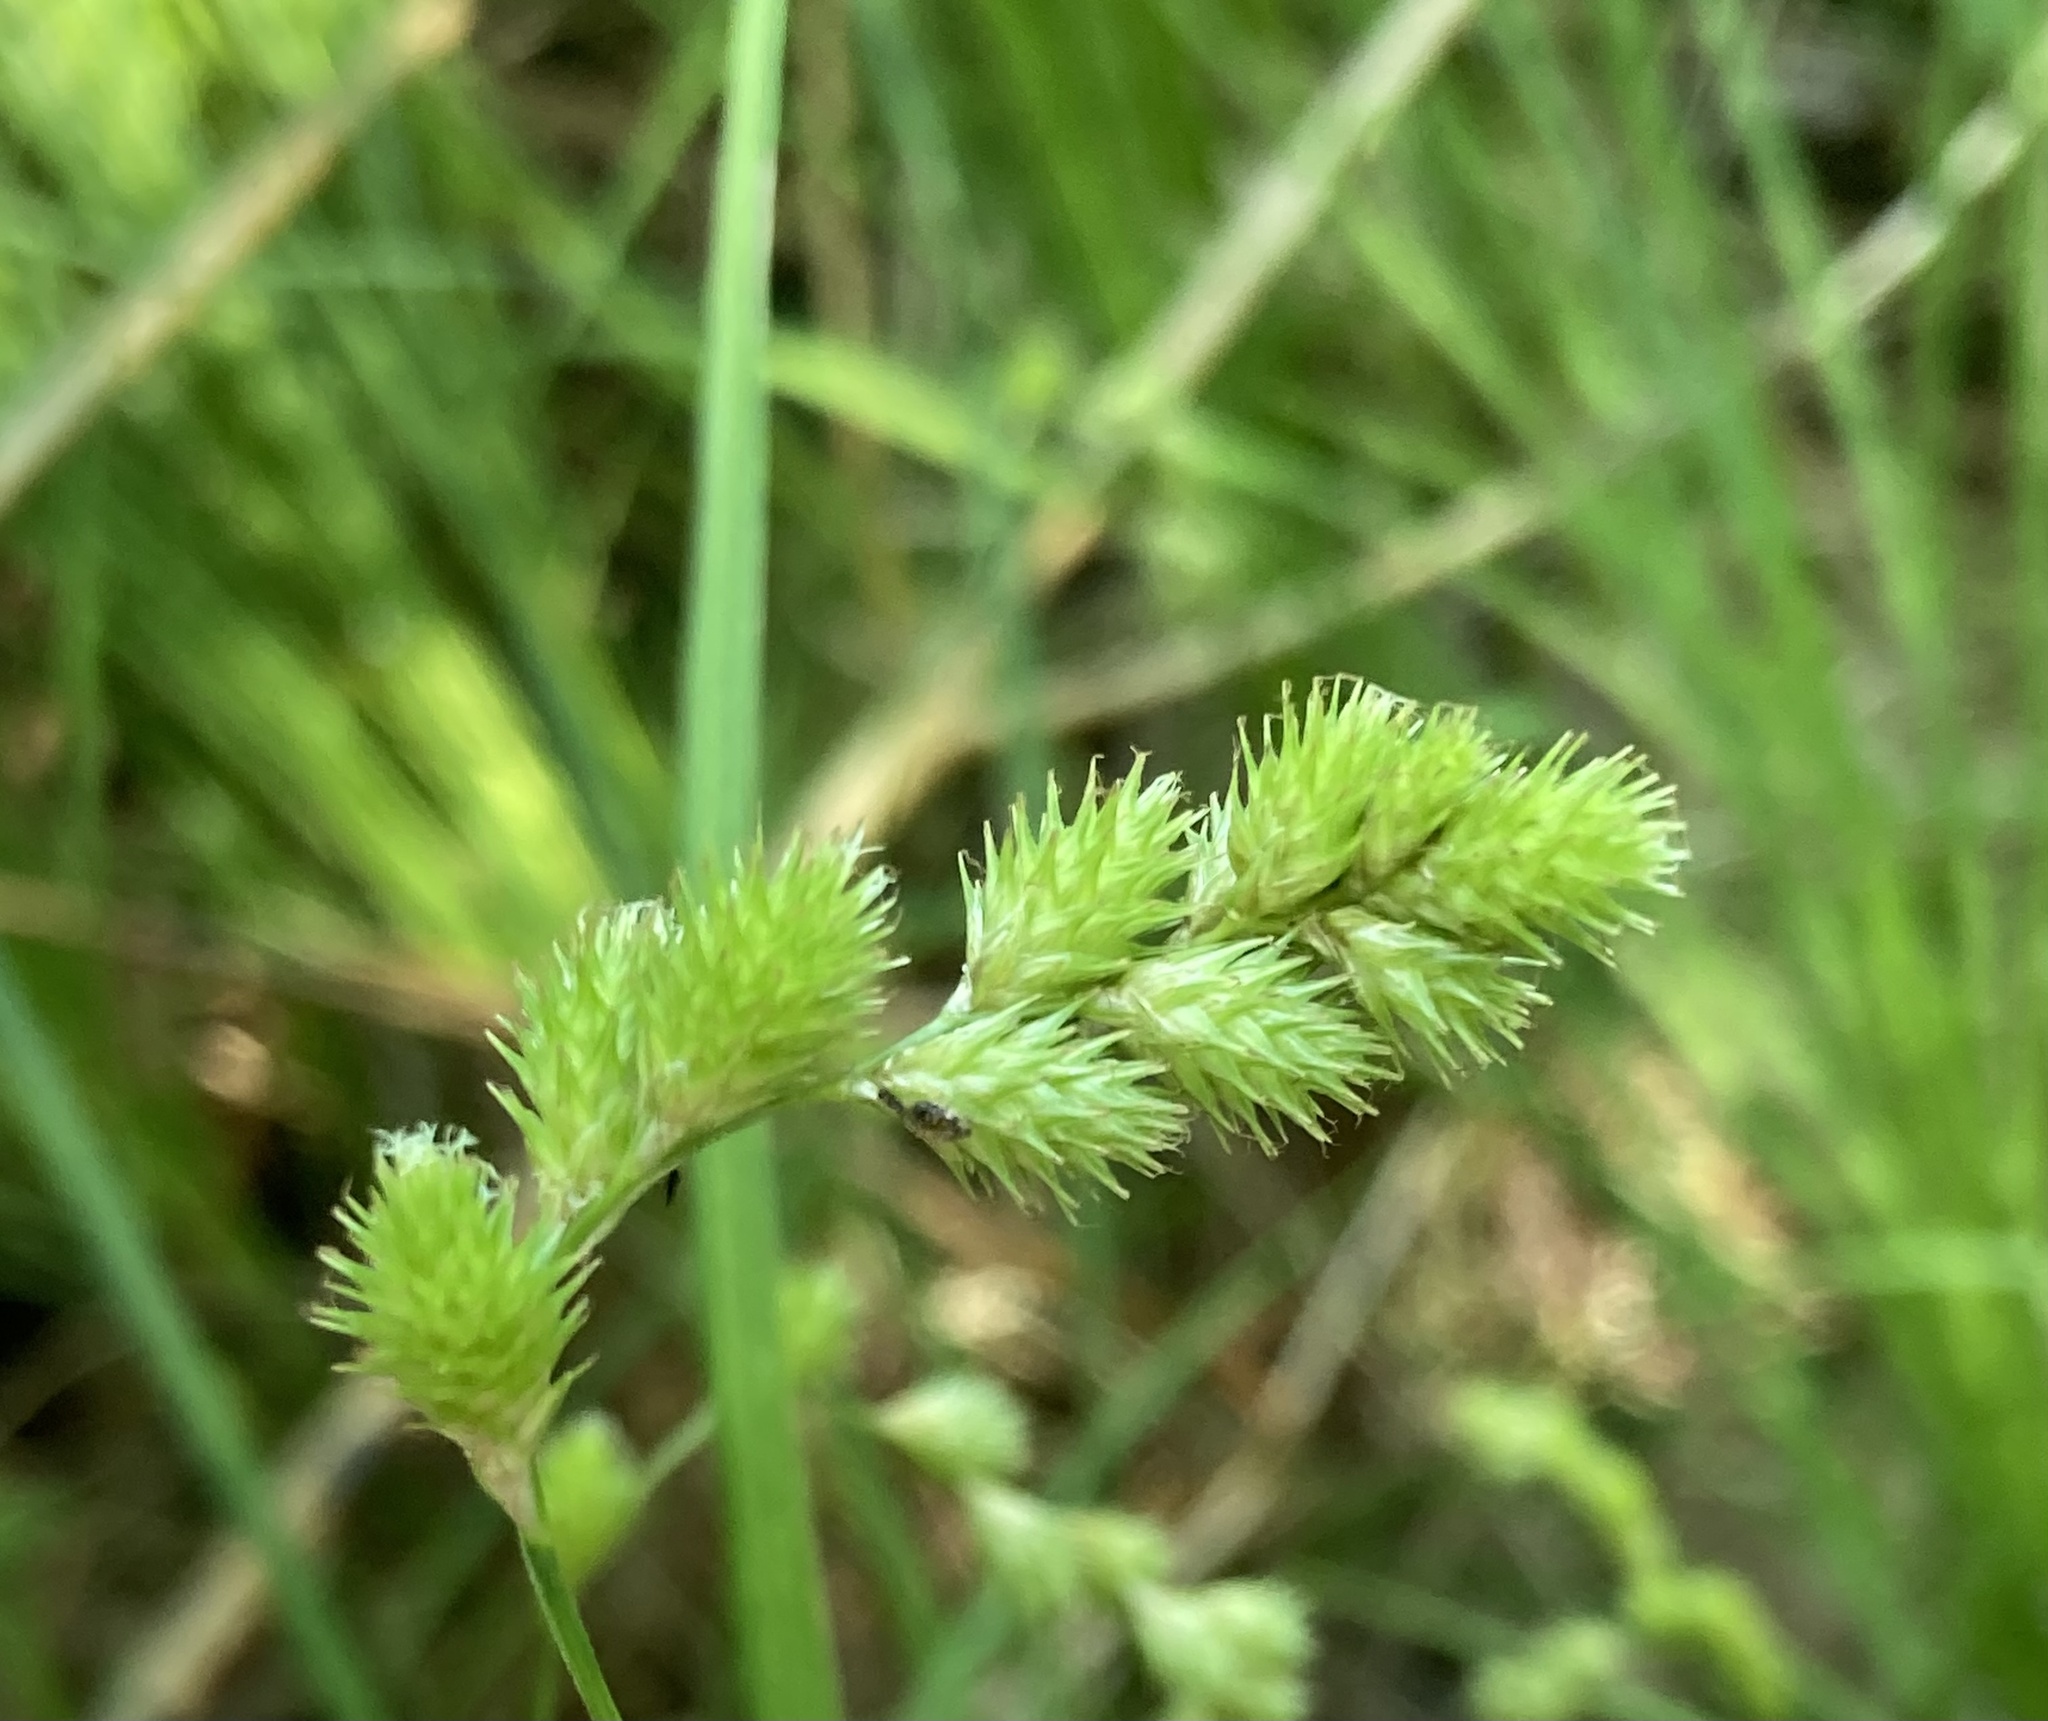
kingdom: Plantae
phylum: Tracheophyta
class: Liliopsida
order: Poales
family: Cyperaceae
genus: Carex
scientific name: Carex projecta
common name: Loose-headed oval sedge
